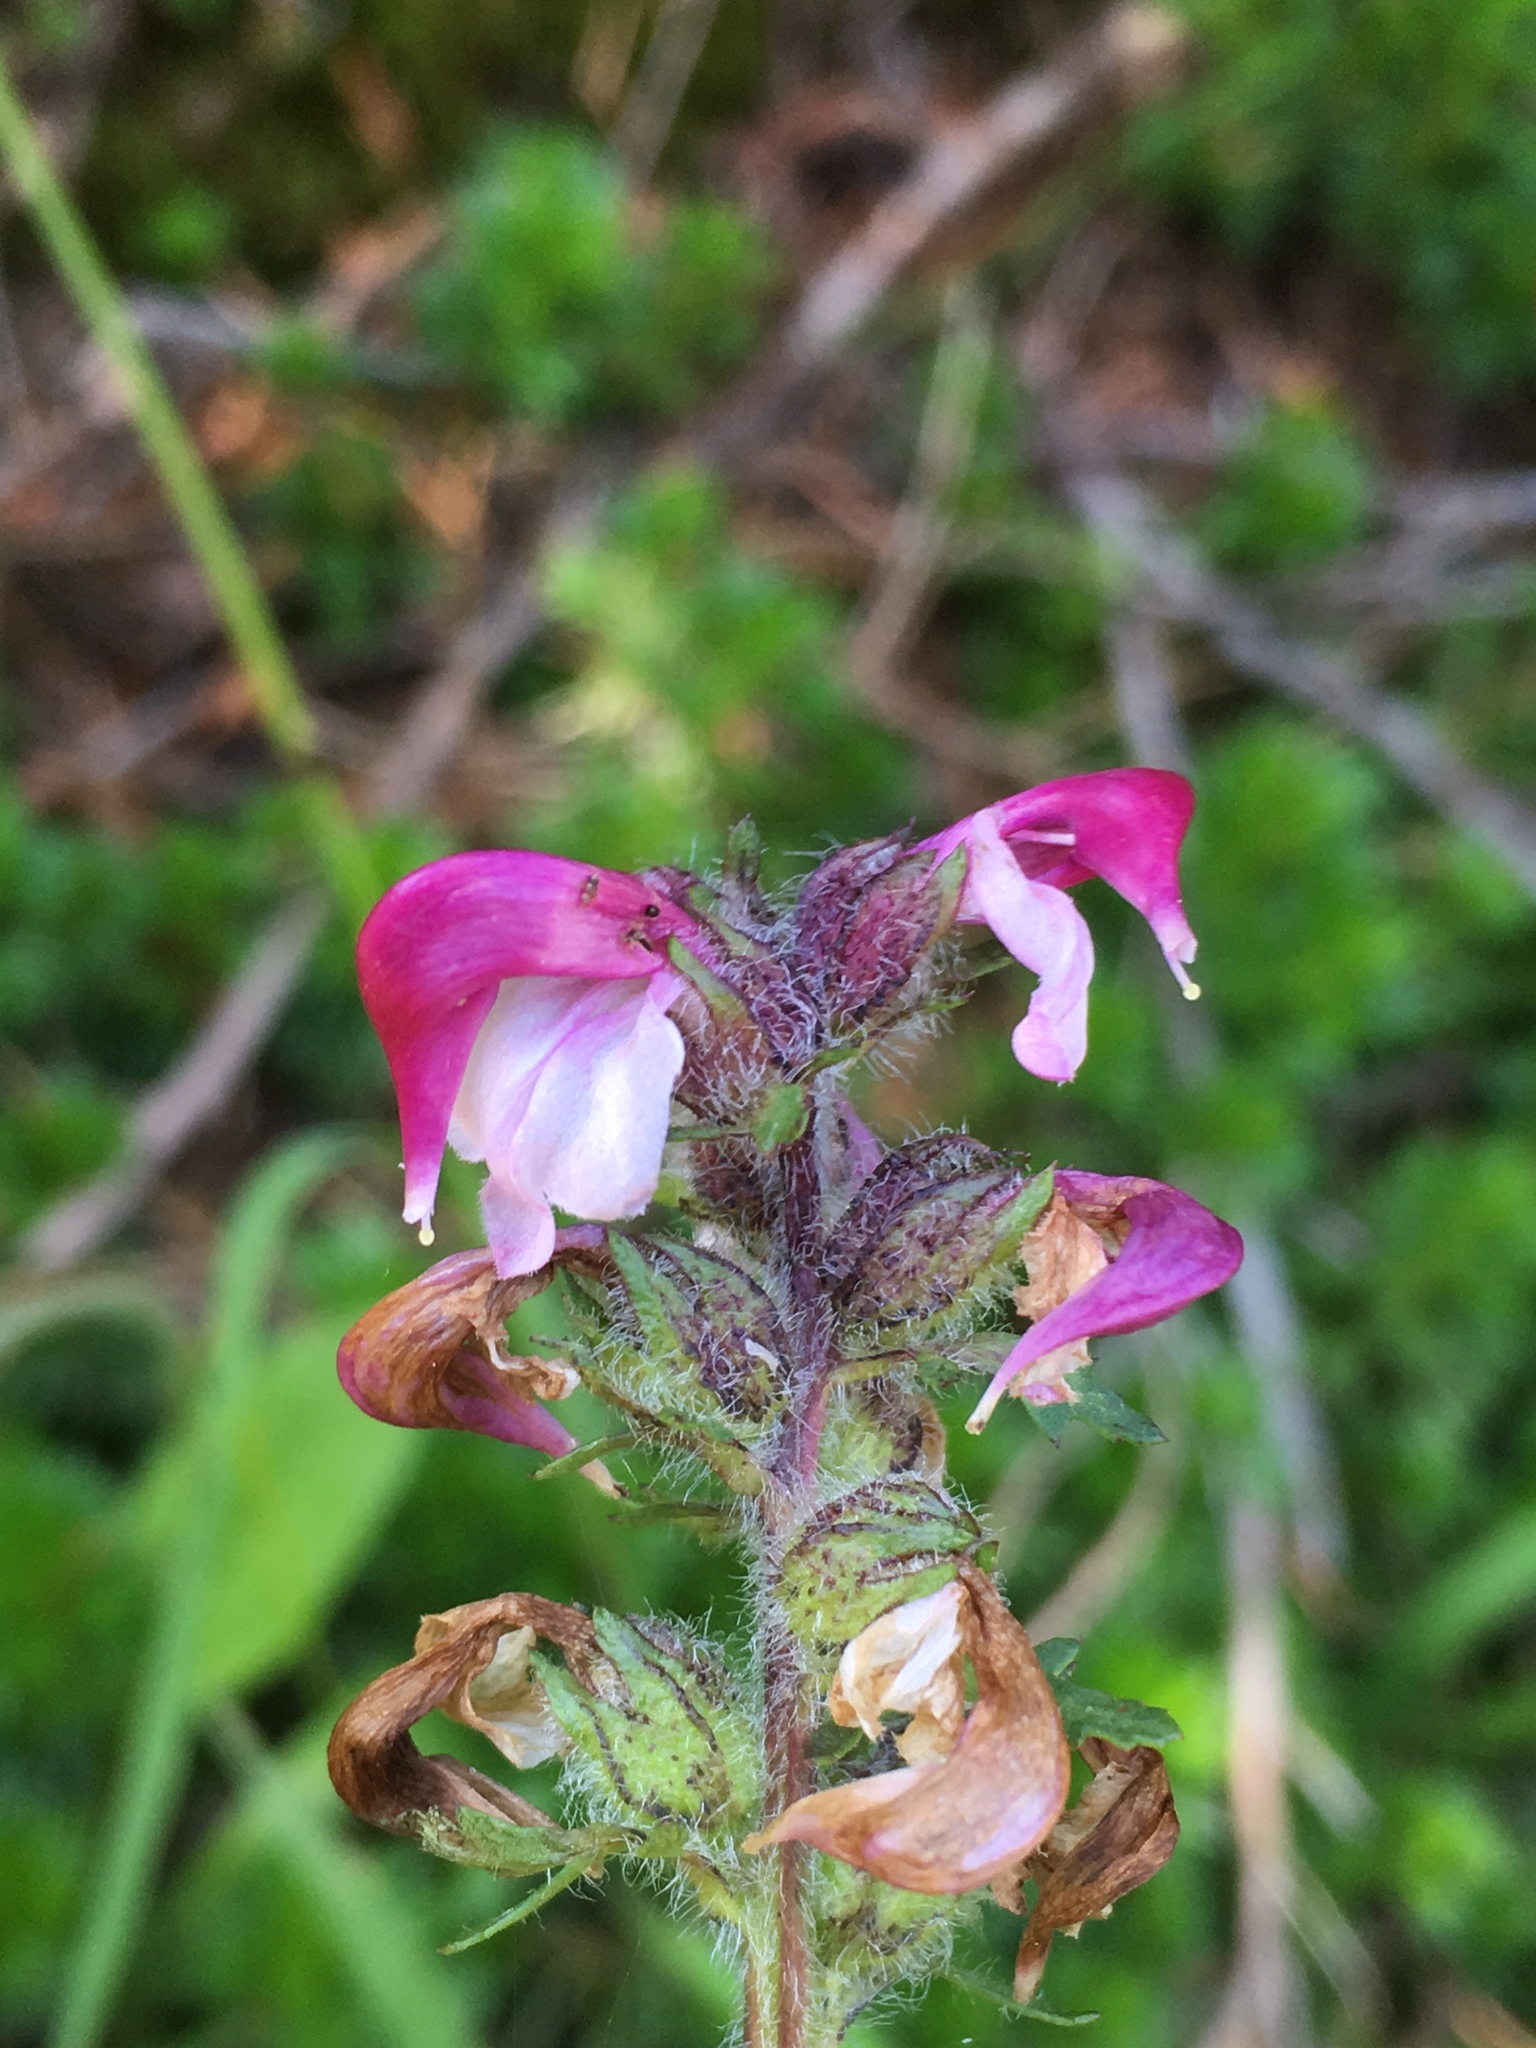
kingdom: Plantae
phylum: Tracheophyta
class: Magnoliopsida
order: Lamiales
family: Orobanchaceae
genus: Pedicularis
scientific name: Pedicularis ornithorhynchos
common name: Bird's-beak lousewort
